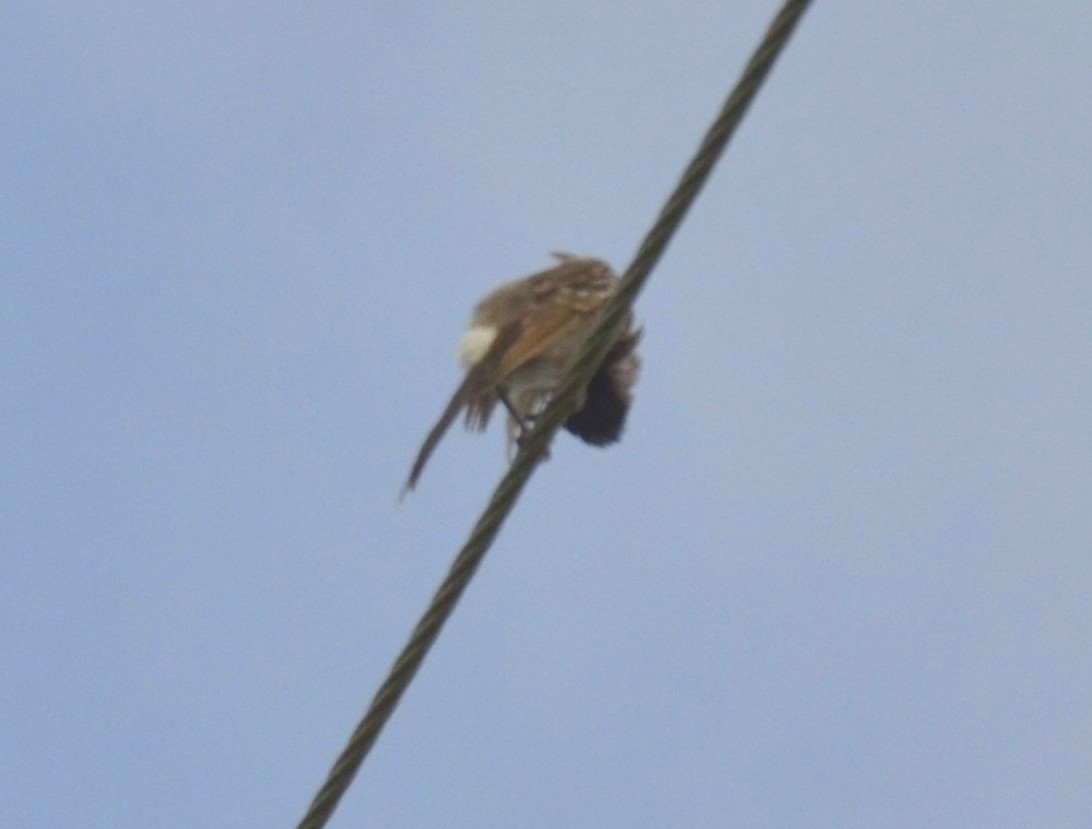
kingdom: Animalia
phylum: Chordata
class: Aves
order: Passeriformes
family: Pycnonotidae
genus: Pycnonotus
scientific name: Pycnonotus cafer
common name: Red-vented bulbul
